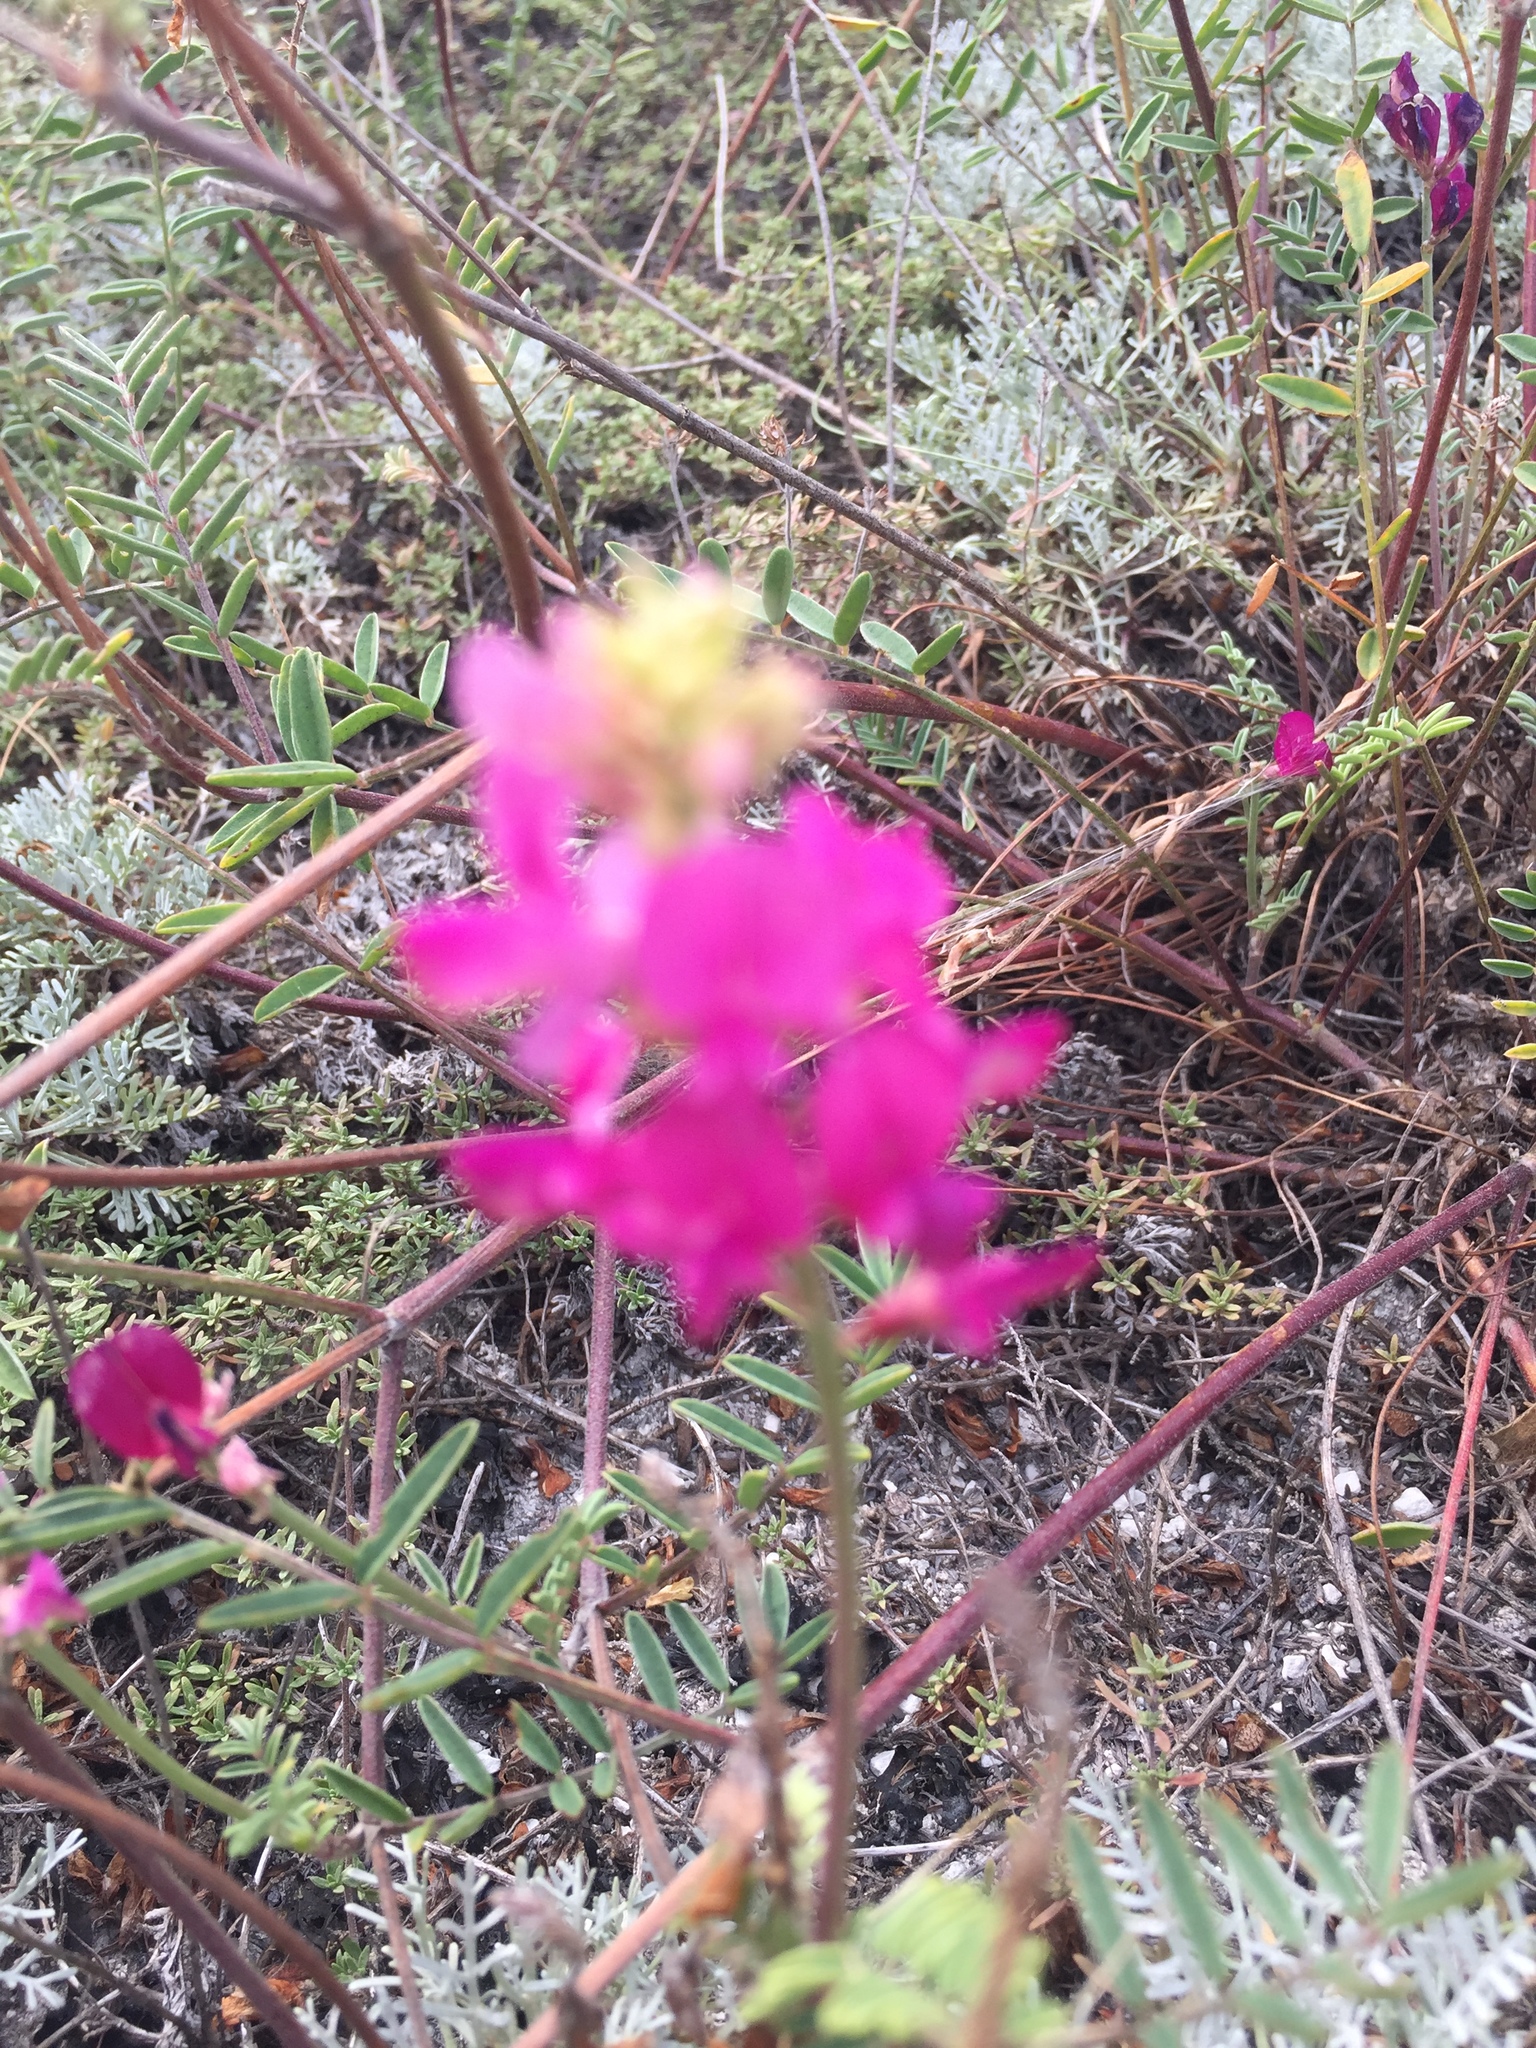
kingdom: Plantae
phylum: Tracheophyta
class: Magnoliopsida
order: Fabales
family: Fabaceae
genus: Hedysarum
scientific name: Hedysarum ucrainicum
